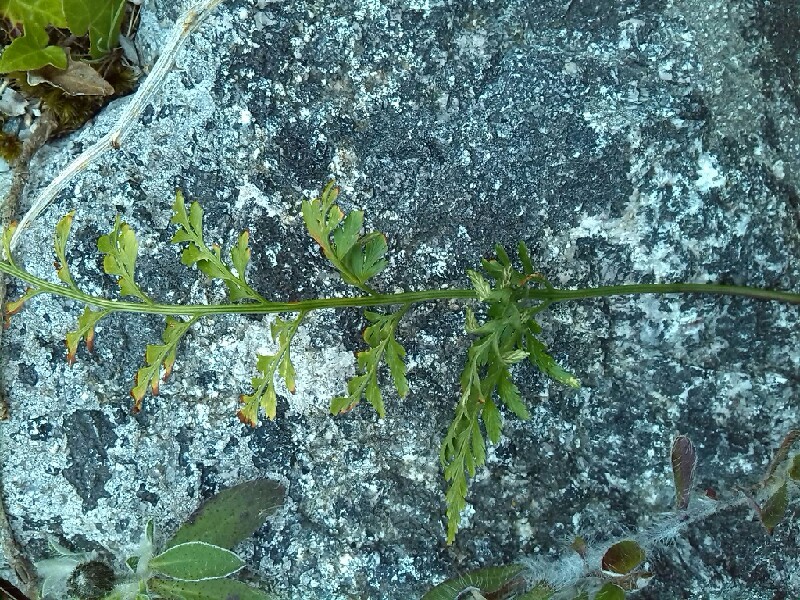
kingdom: Plantae
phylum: Tracheophyta
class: Polypodiopsida
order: Polypodiales
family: Aspleniaceae
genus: Asplenium
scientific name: Asplenium adiantum-nigrum
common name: Black spleenwort
